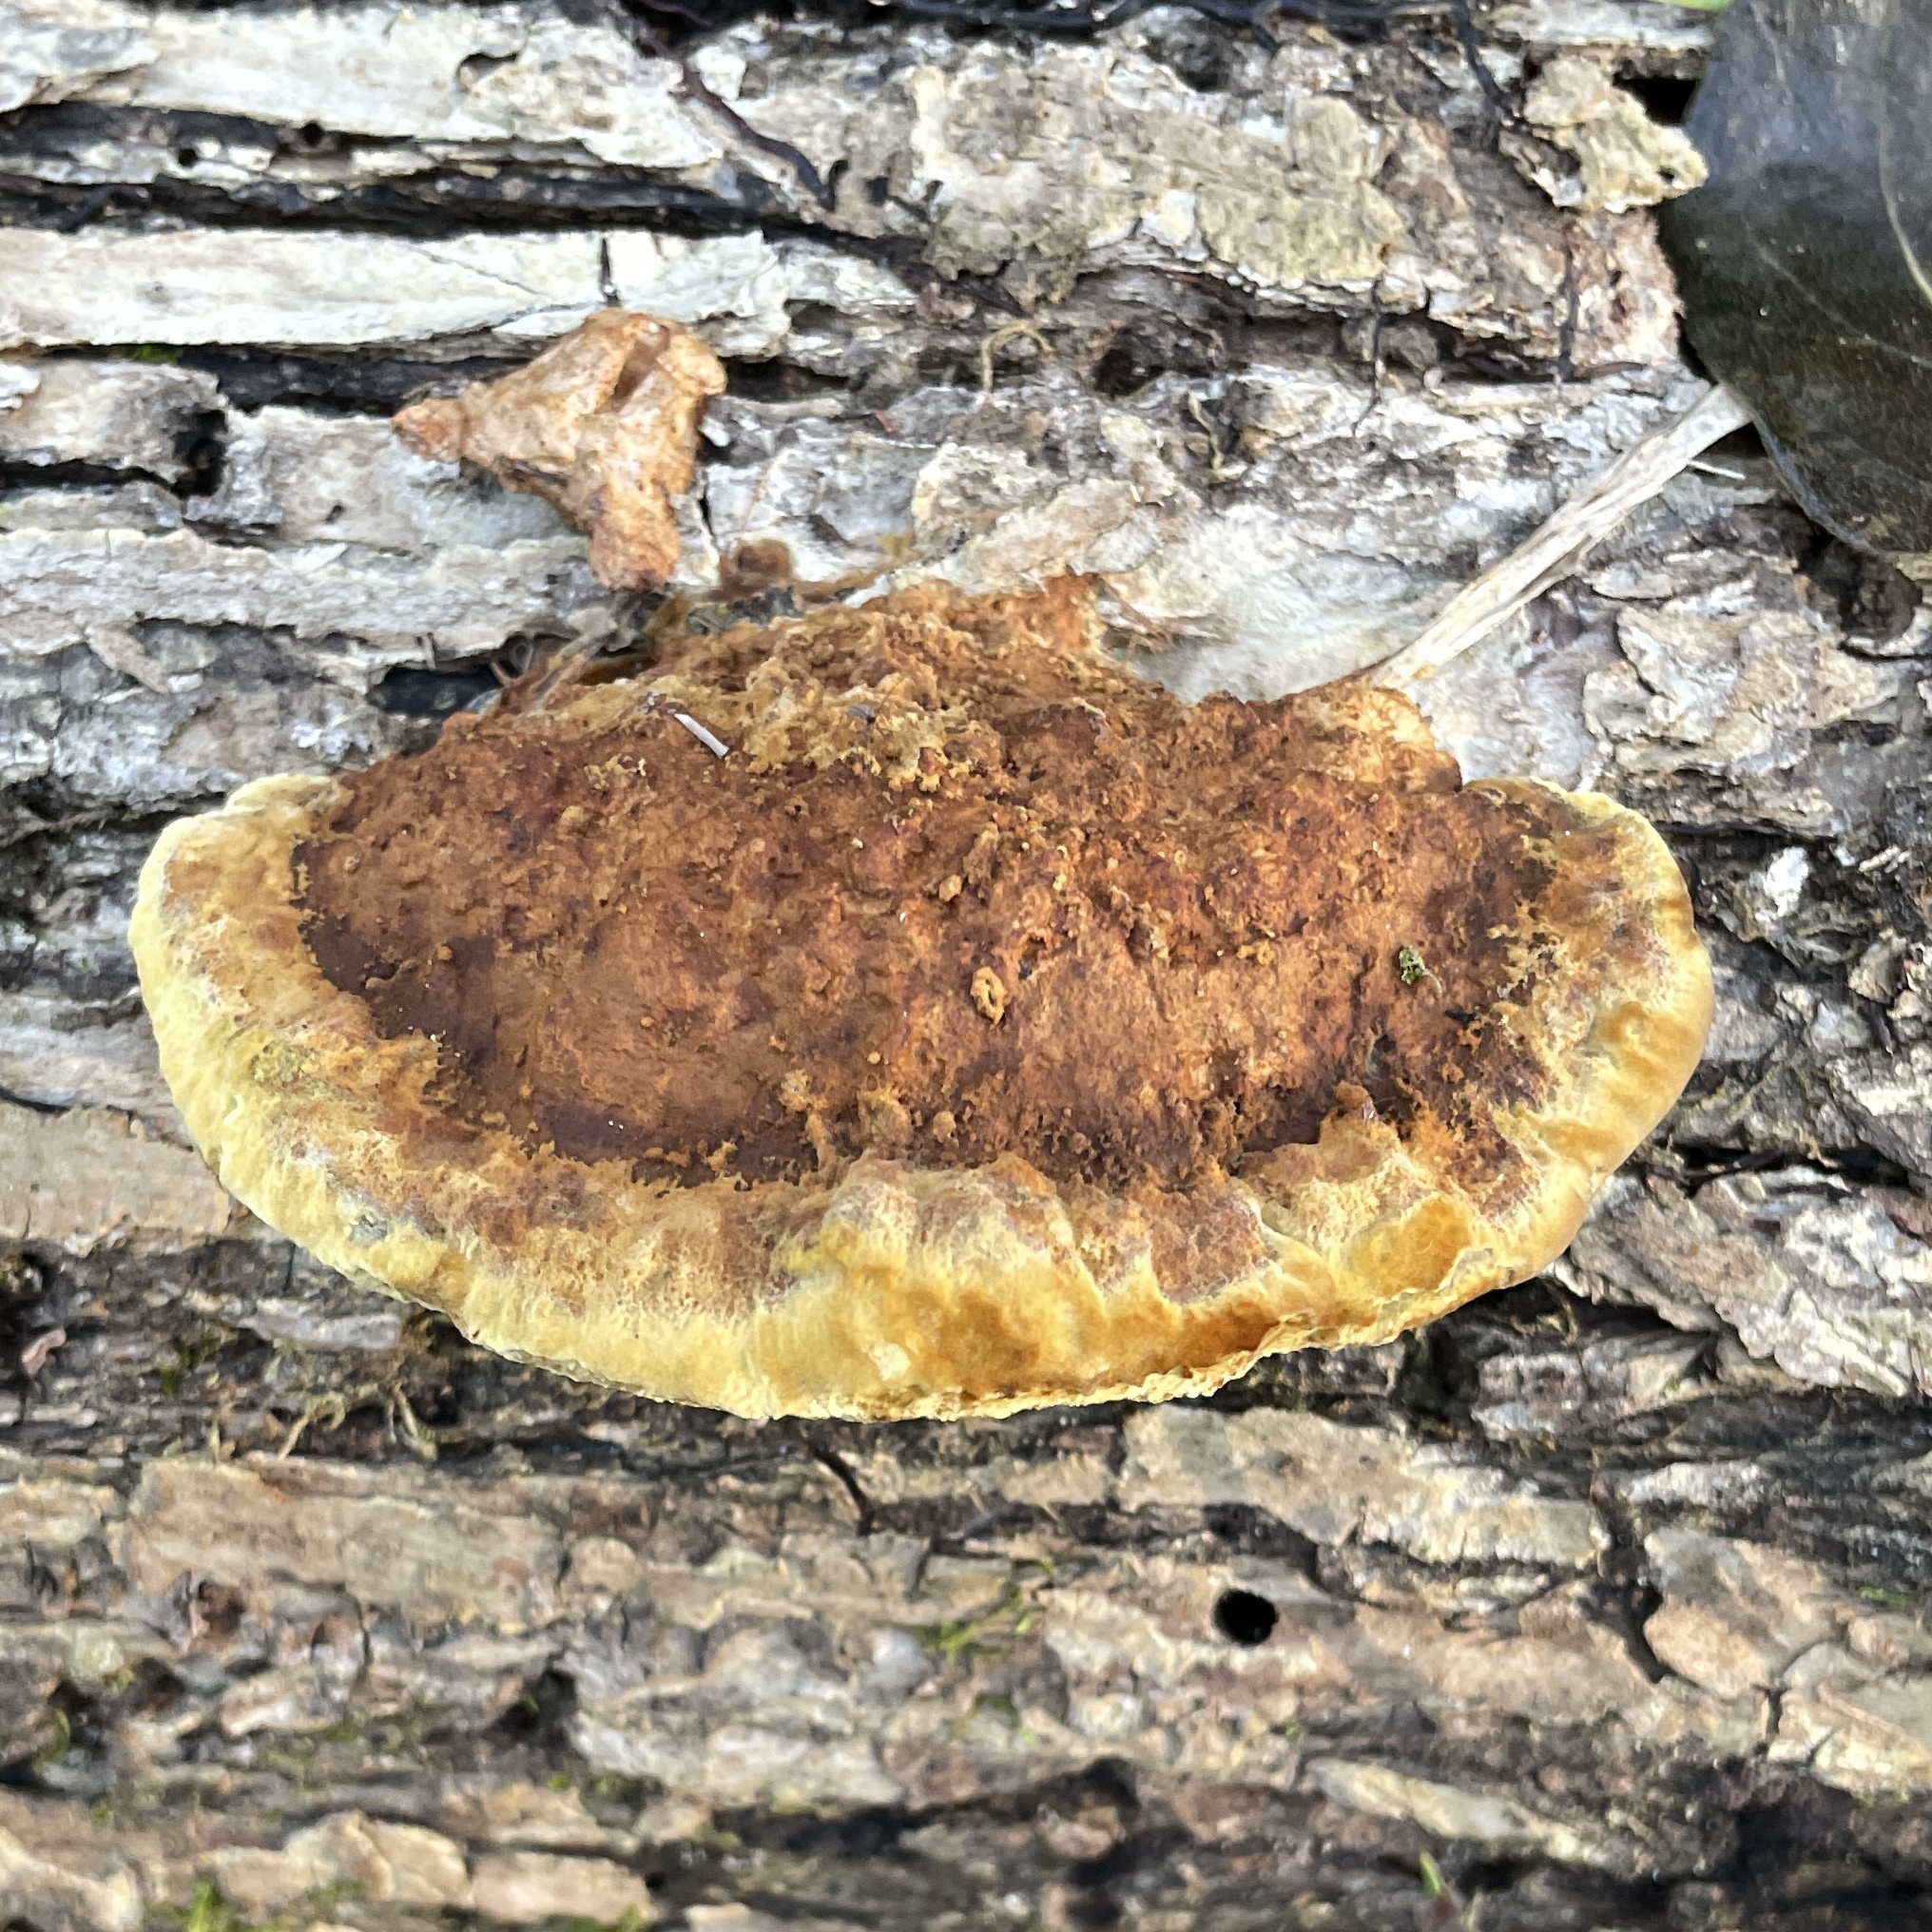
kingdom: Fungi
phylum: Basidiomycota
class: Agaricomycetes
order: Hymenochaetales
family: Hymenochaetaceae
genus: Phellinus
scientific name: Phellinus gilvus
